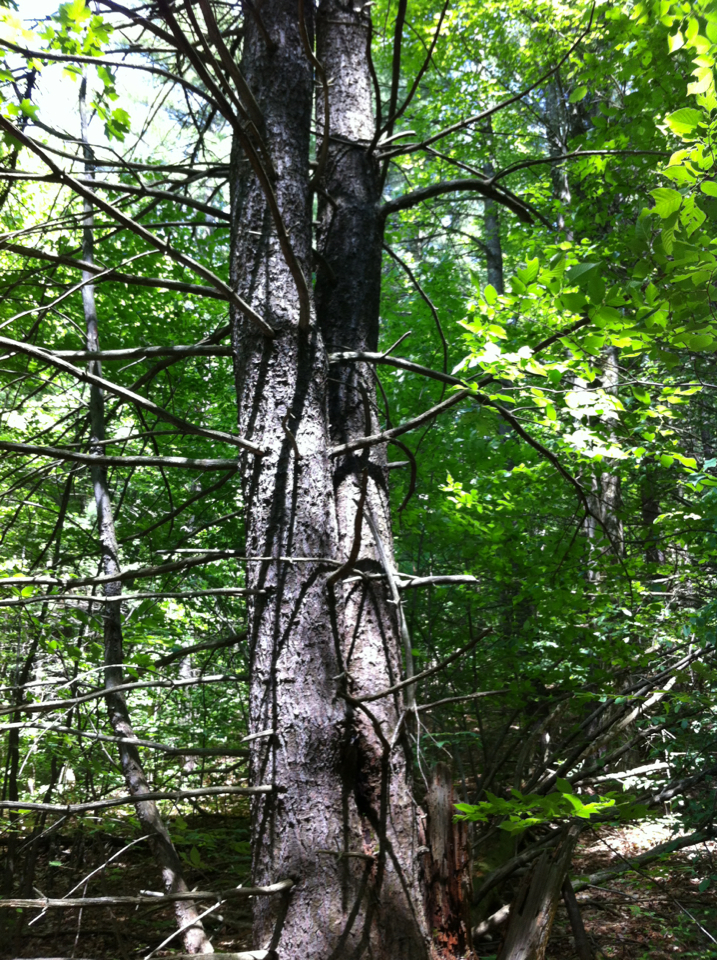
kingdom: Plantae
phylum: Tracheophyta
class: Pinopsida
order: Pinales
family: Pinaceae
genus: Pinus
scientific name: Pinus strobus
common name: Weymouth pine
